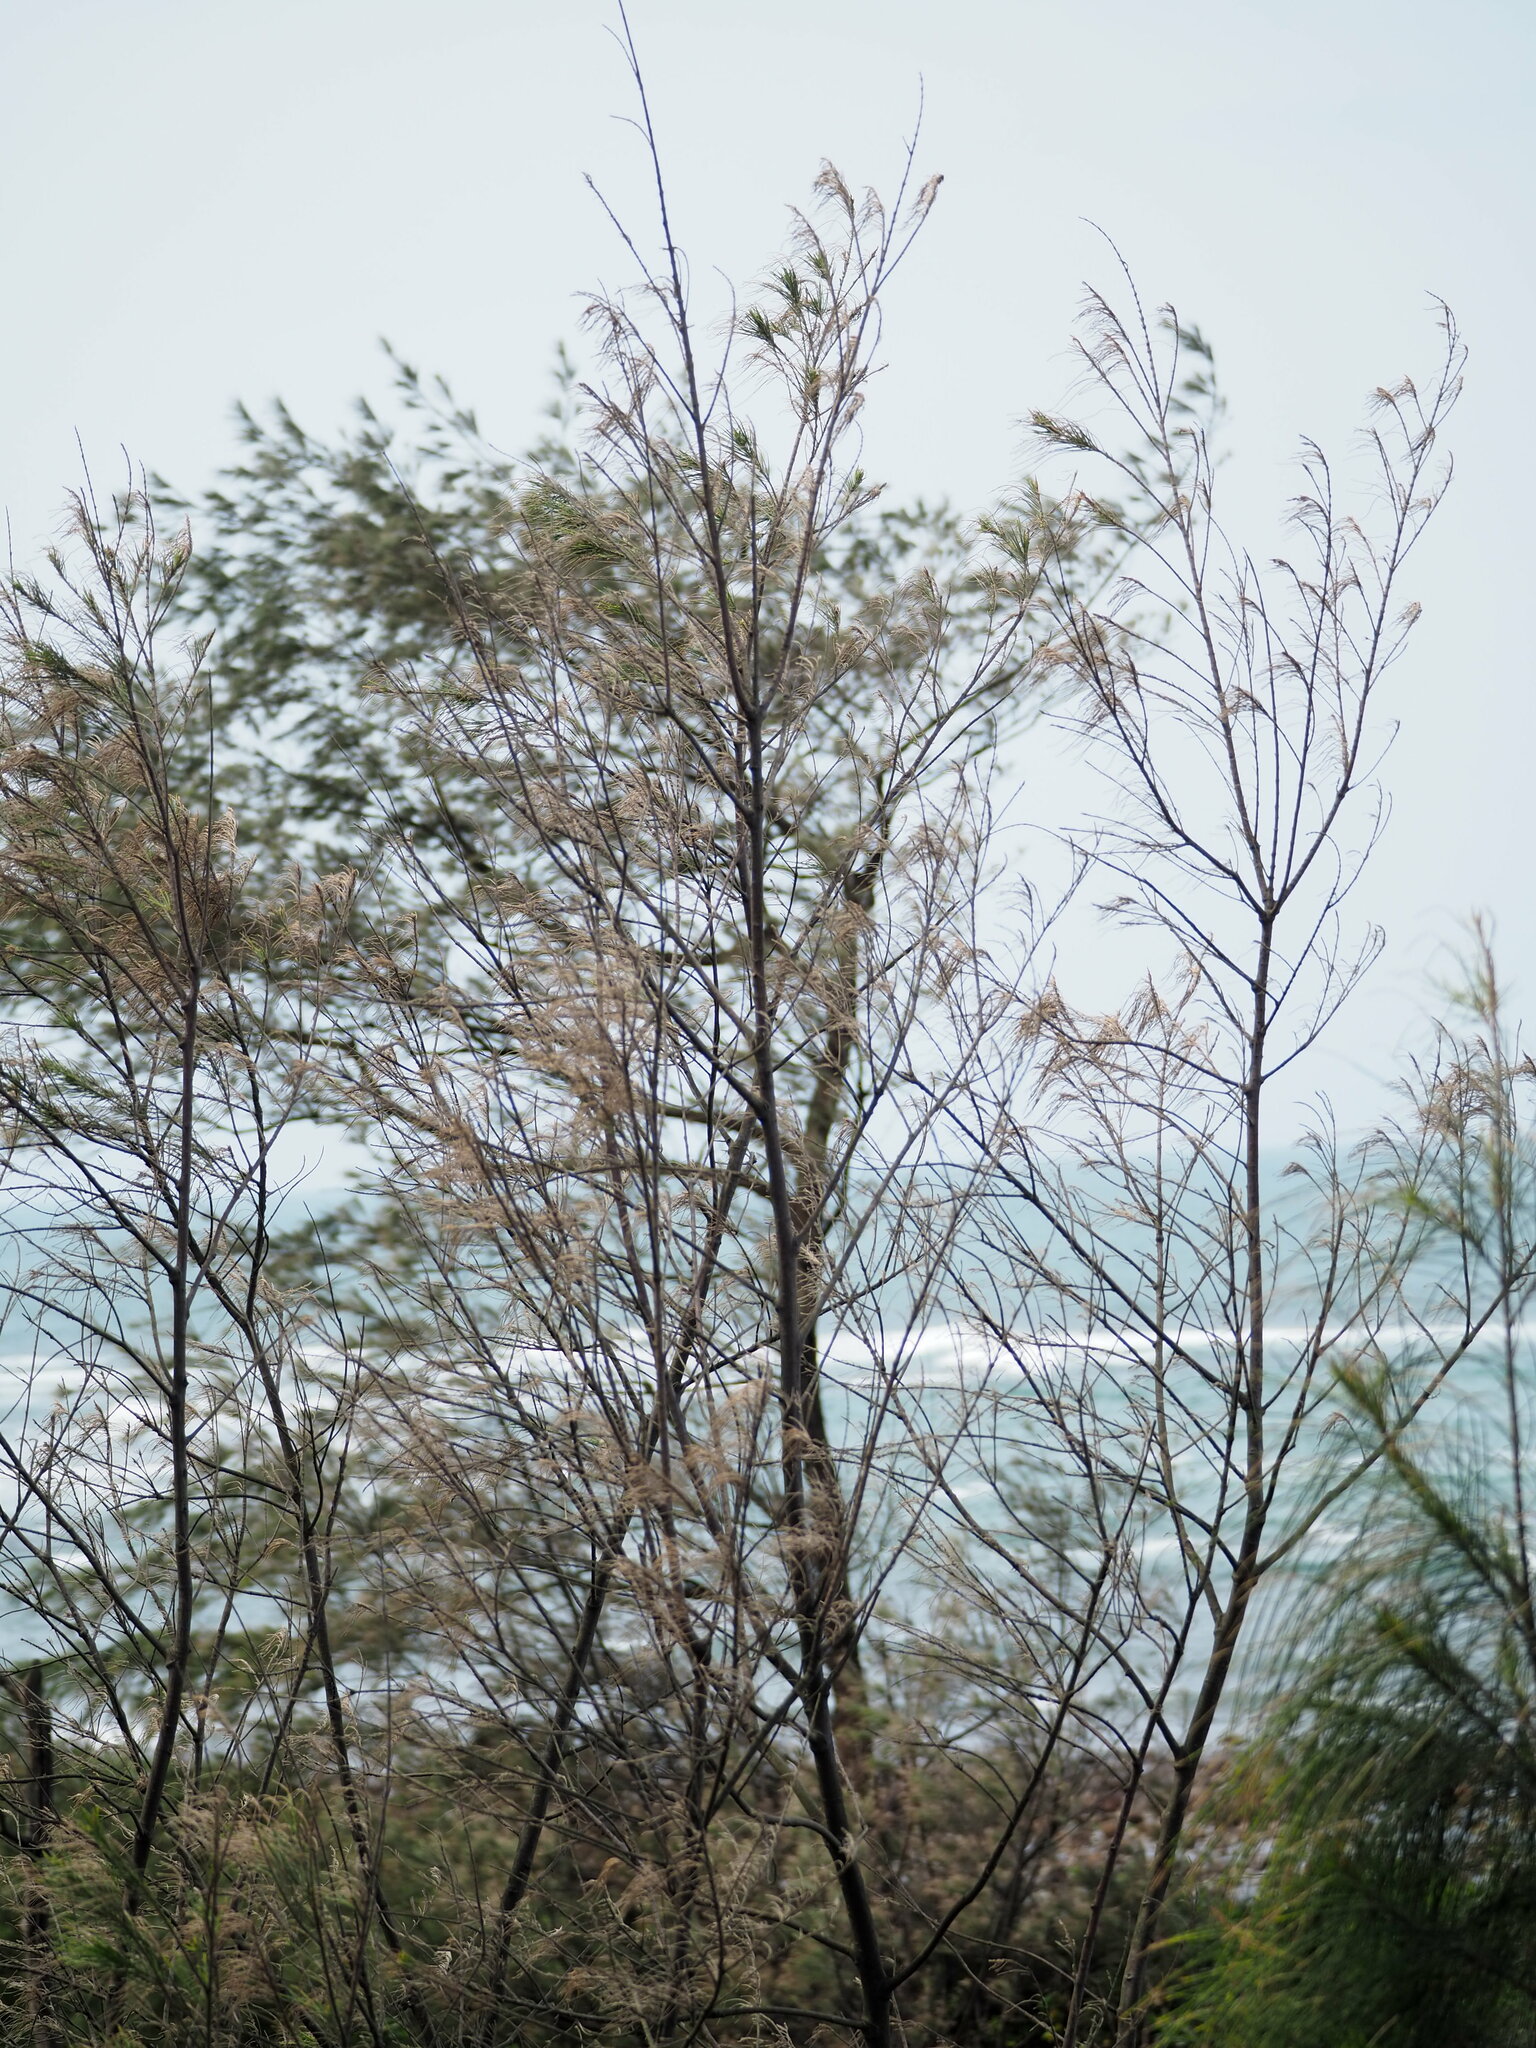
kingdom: Plantae
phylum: Tracheophyta
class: Magnoliopsida
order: Fagales
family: Casuarinaceae
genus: Casuarina
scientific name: Casuarina equisetifolia
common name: Beach sheoak
